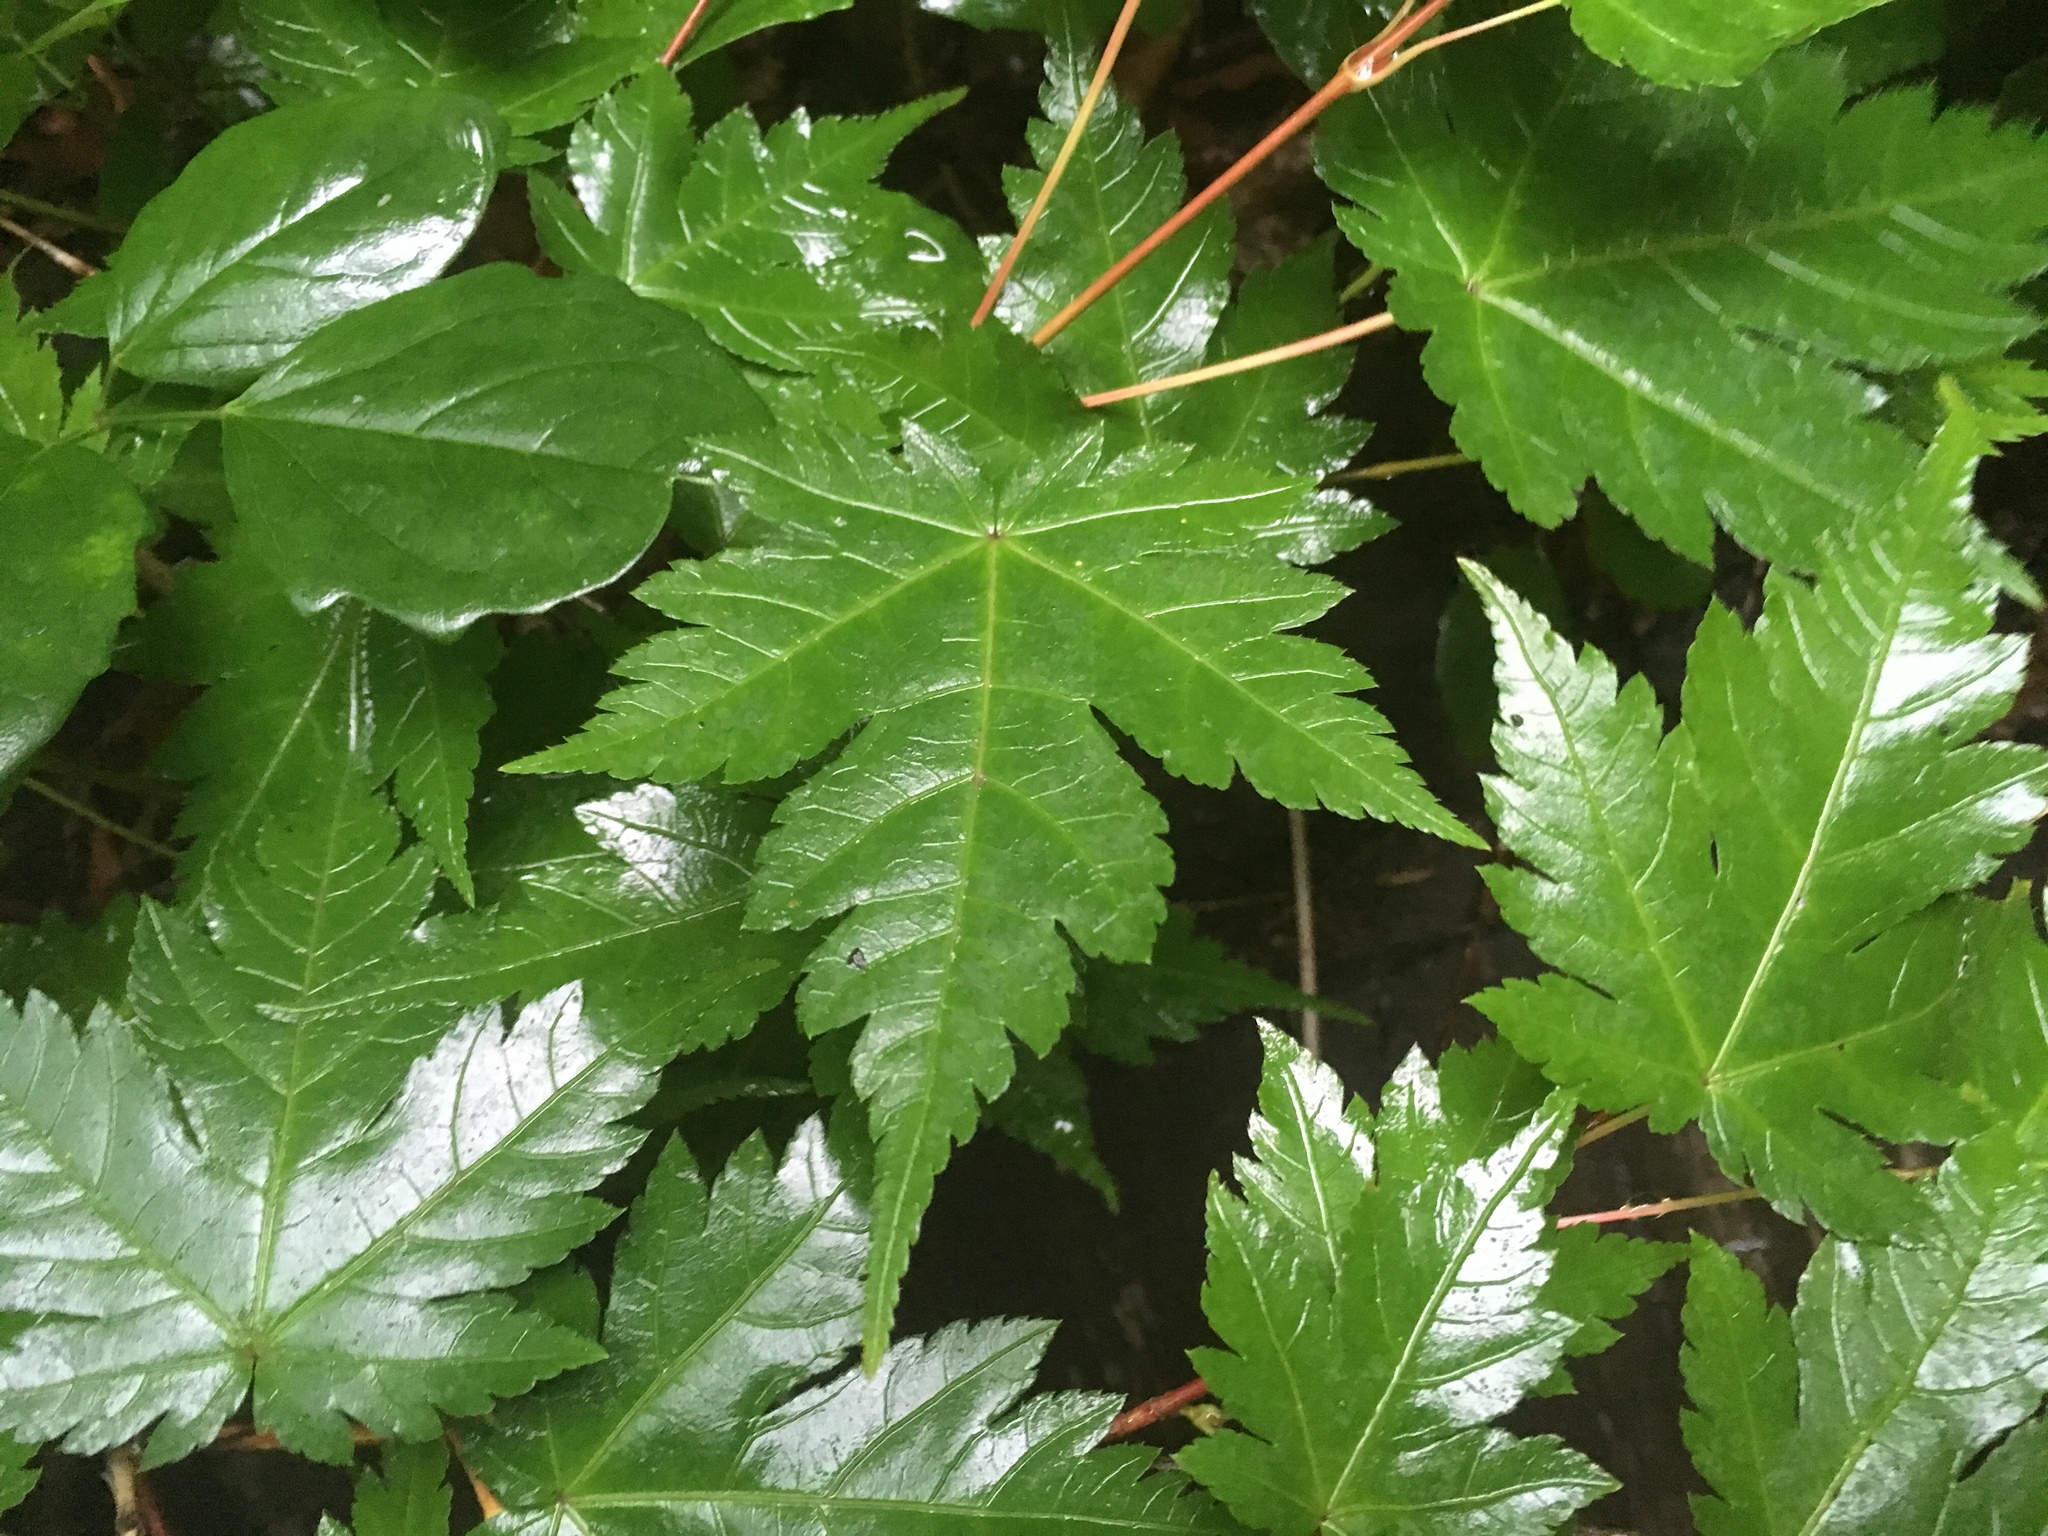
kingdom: Plantae
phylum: Tracheophyta
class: Magnoliopsida
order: Sapindales
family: Sapindaceae
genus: Acer
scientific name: Acer
